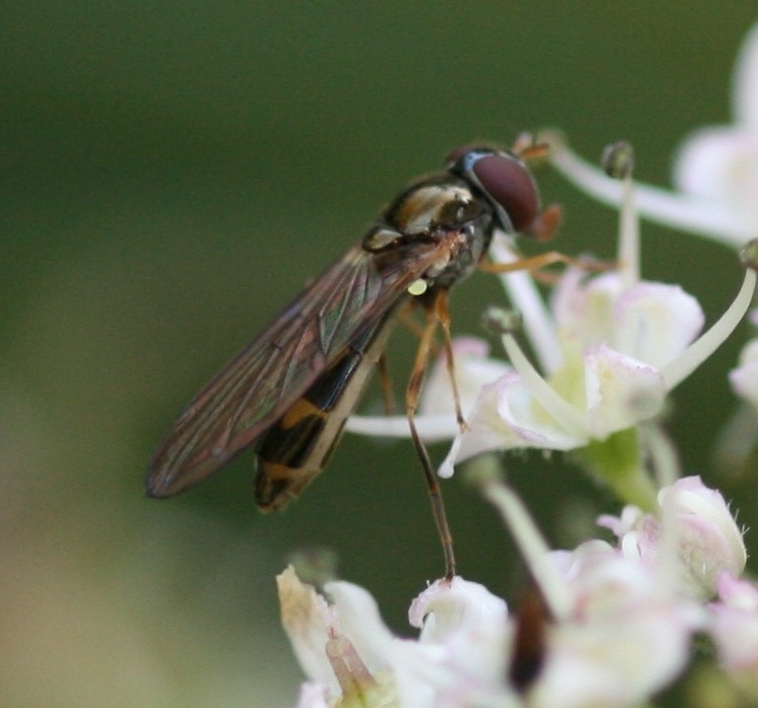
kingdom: Animalia
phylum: Arthropoda
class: Insecta
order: Diptera
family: Syrphidae
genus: Melanostoma
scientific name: Melanostoma scalare
